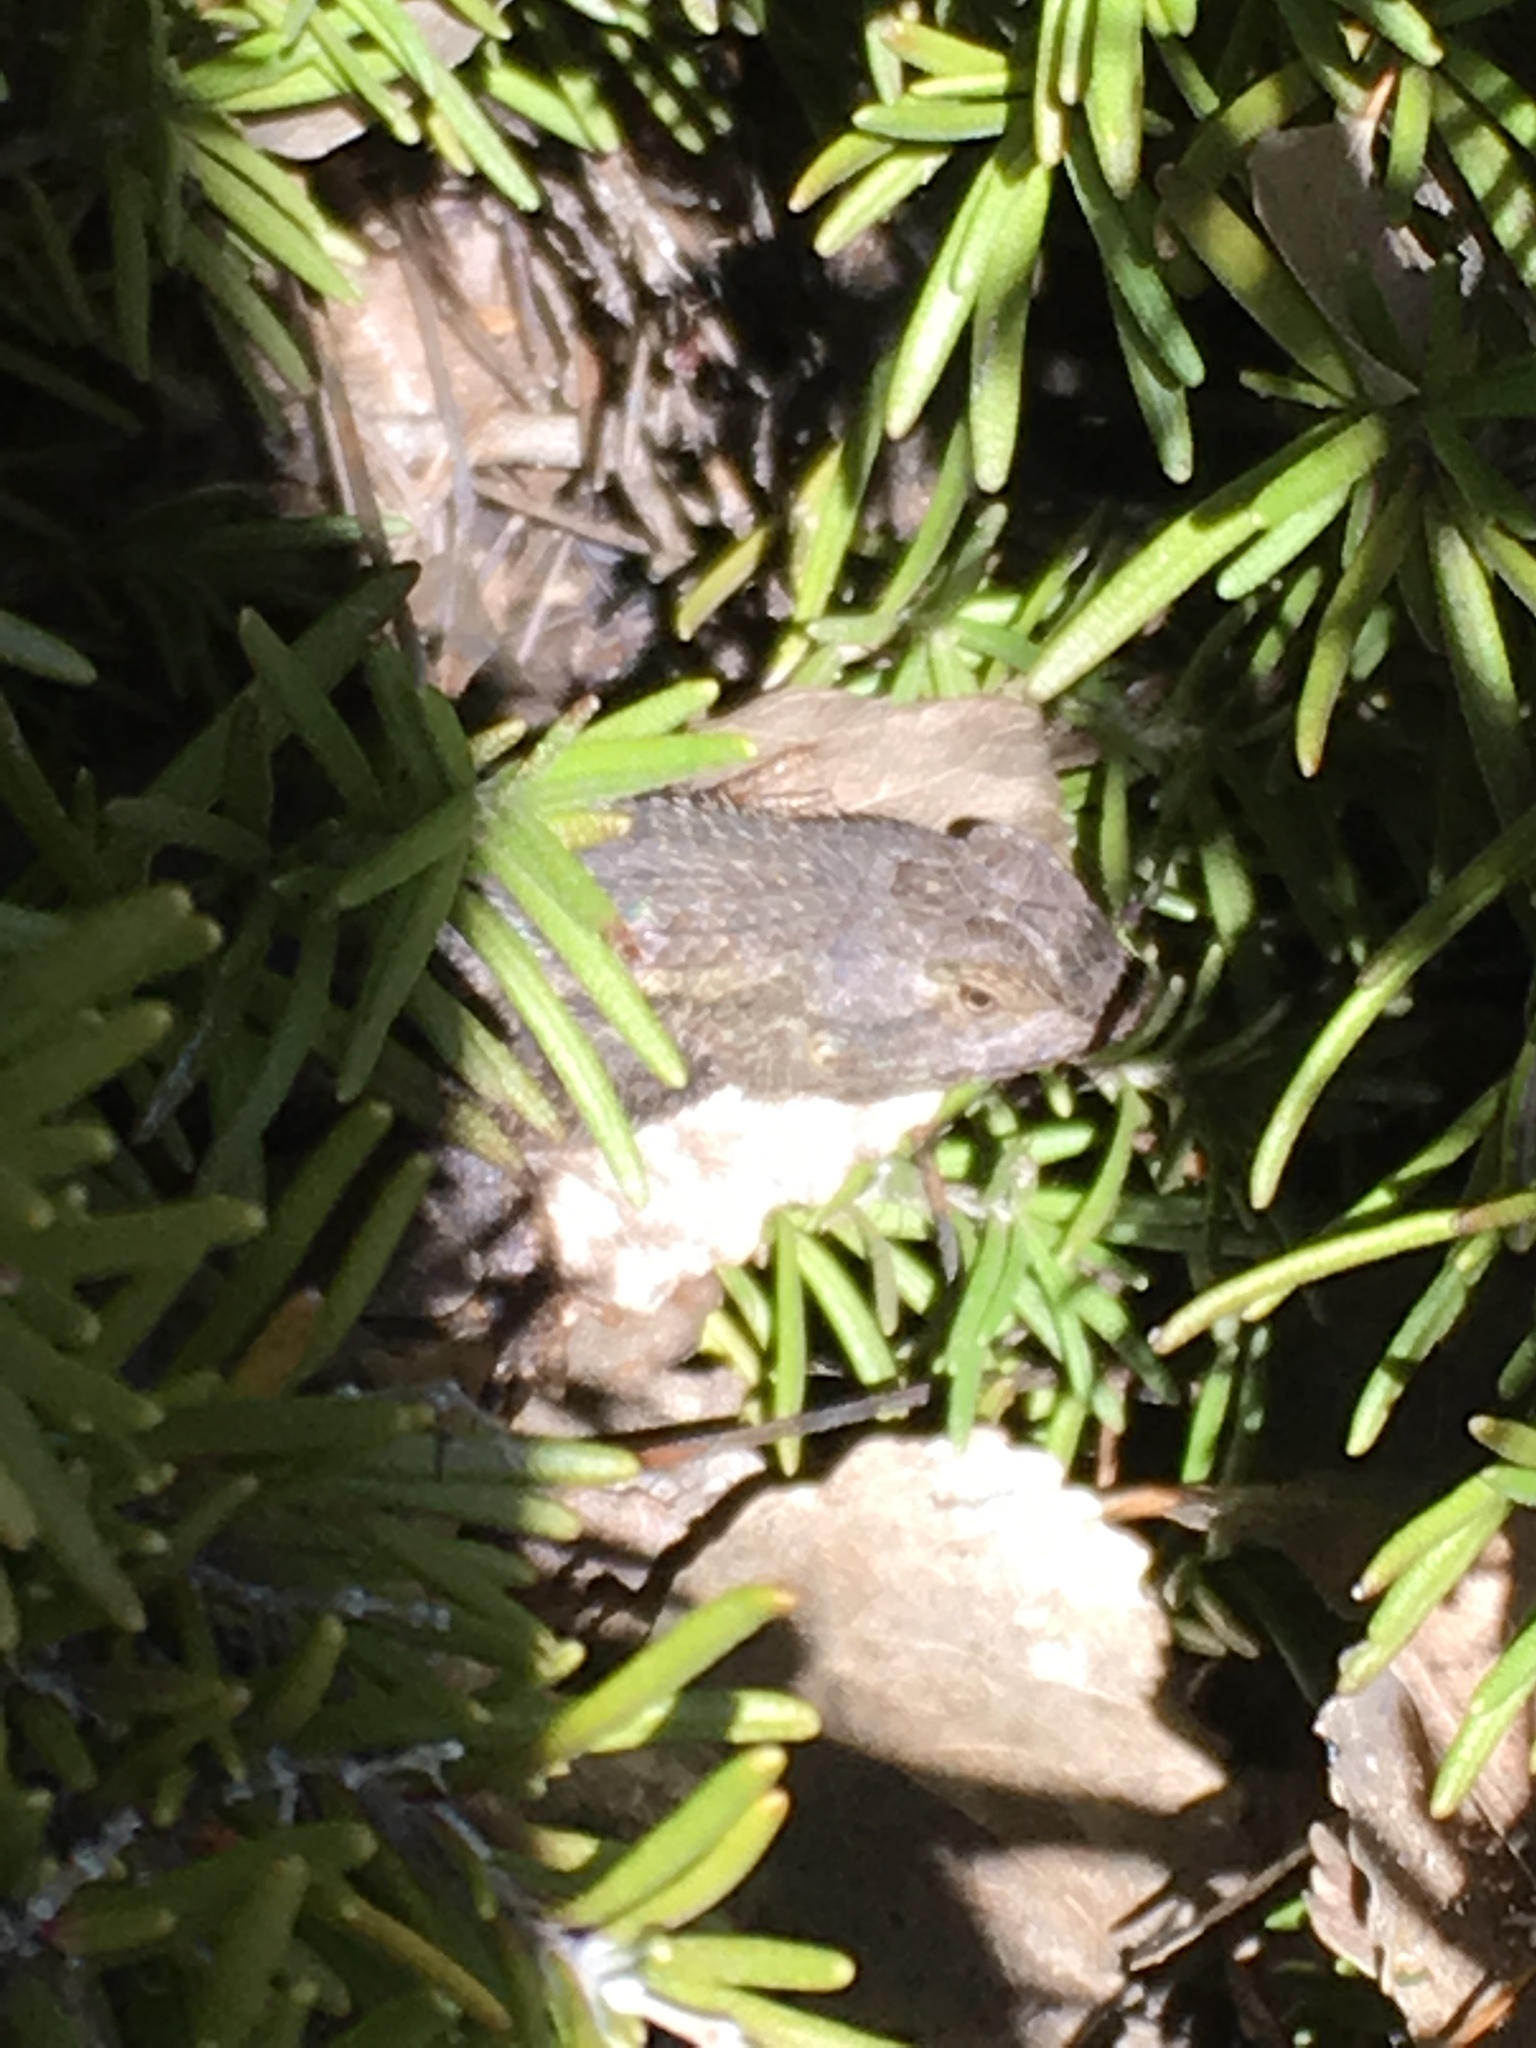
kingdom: Animalia
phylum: Chordata
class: Squamata
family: Phrynosomatidae
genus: Sceloporus
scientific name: Sceloporus occidentalis
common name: Western fence lizard
